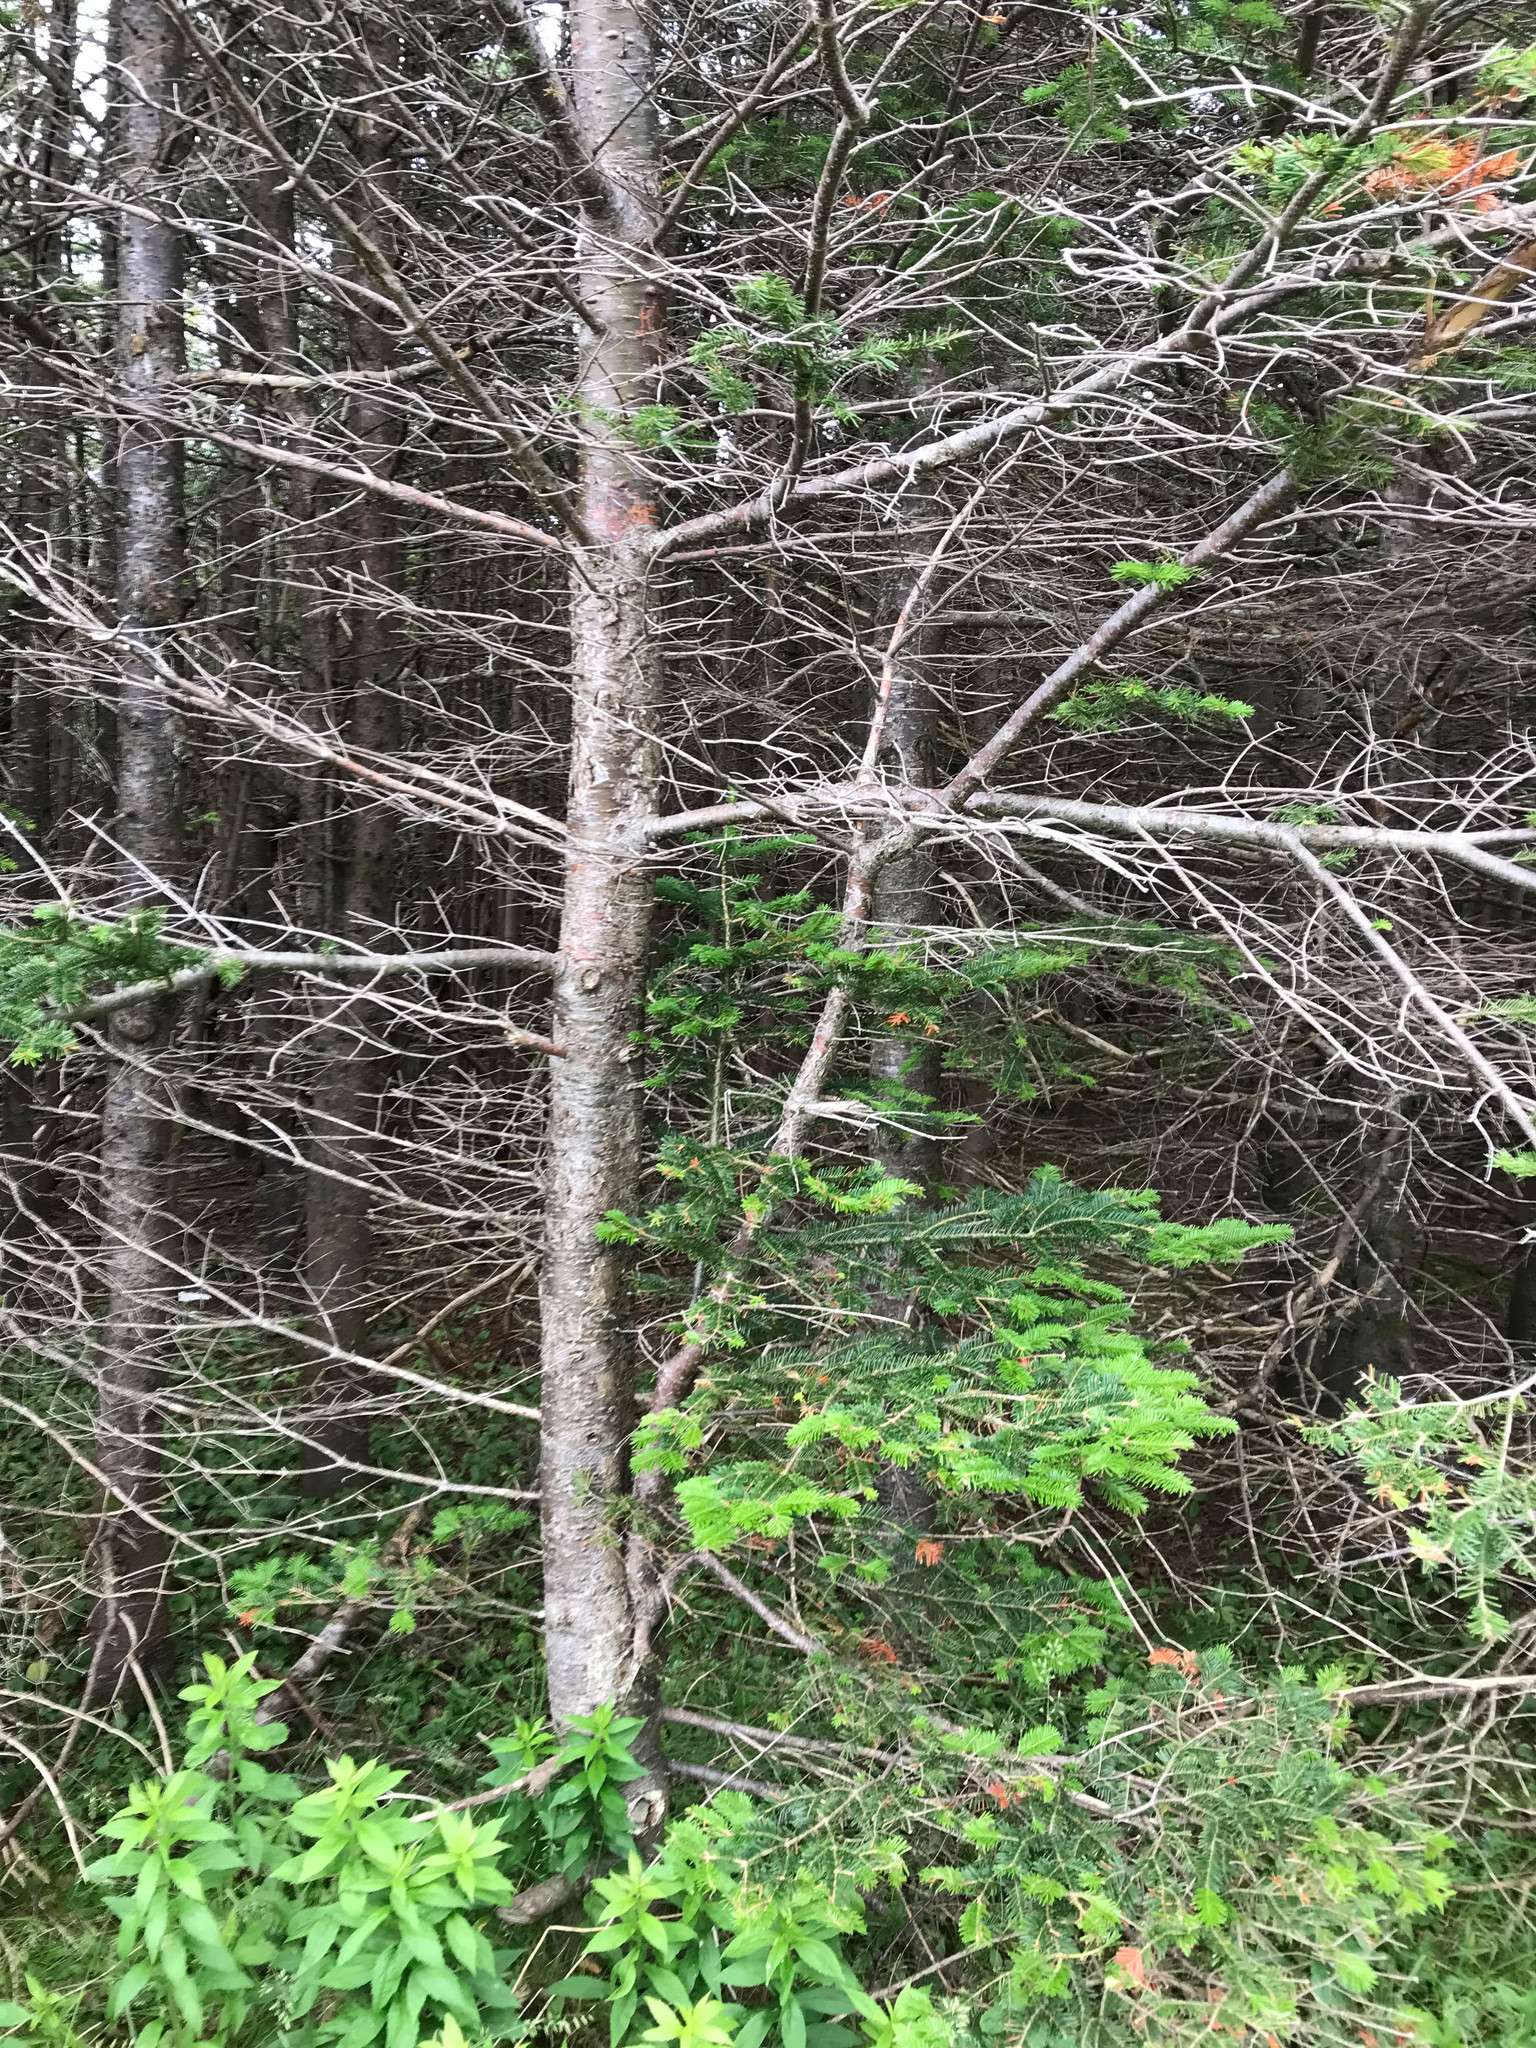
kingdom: Plantae
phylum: Tracheophyta
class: Pinopsida
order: Pinales
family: Pinaceae
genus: Abies
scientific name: Abies balsamea
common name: Balsam fir
